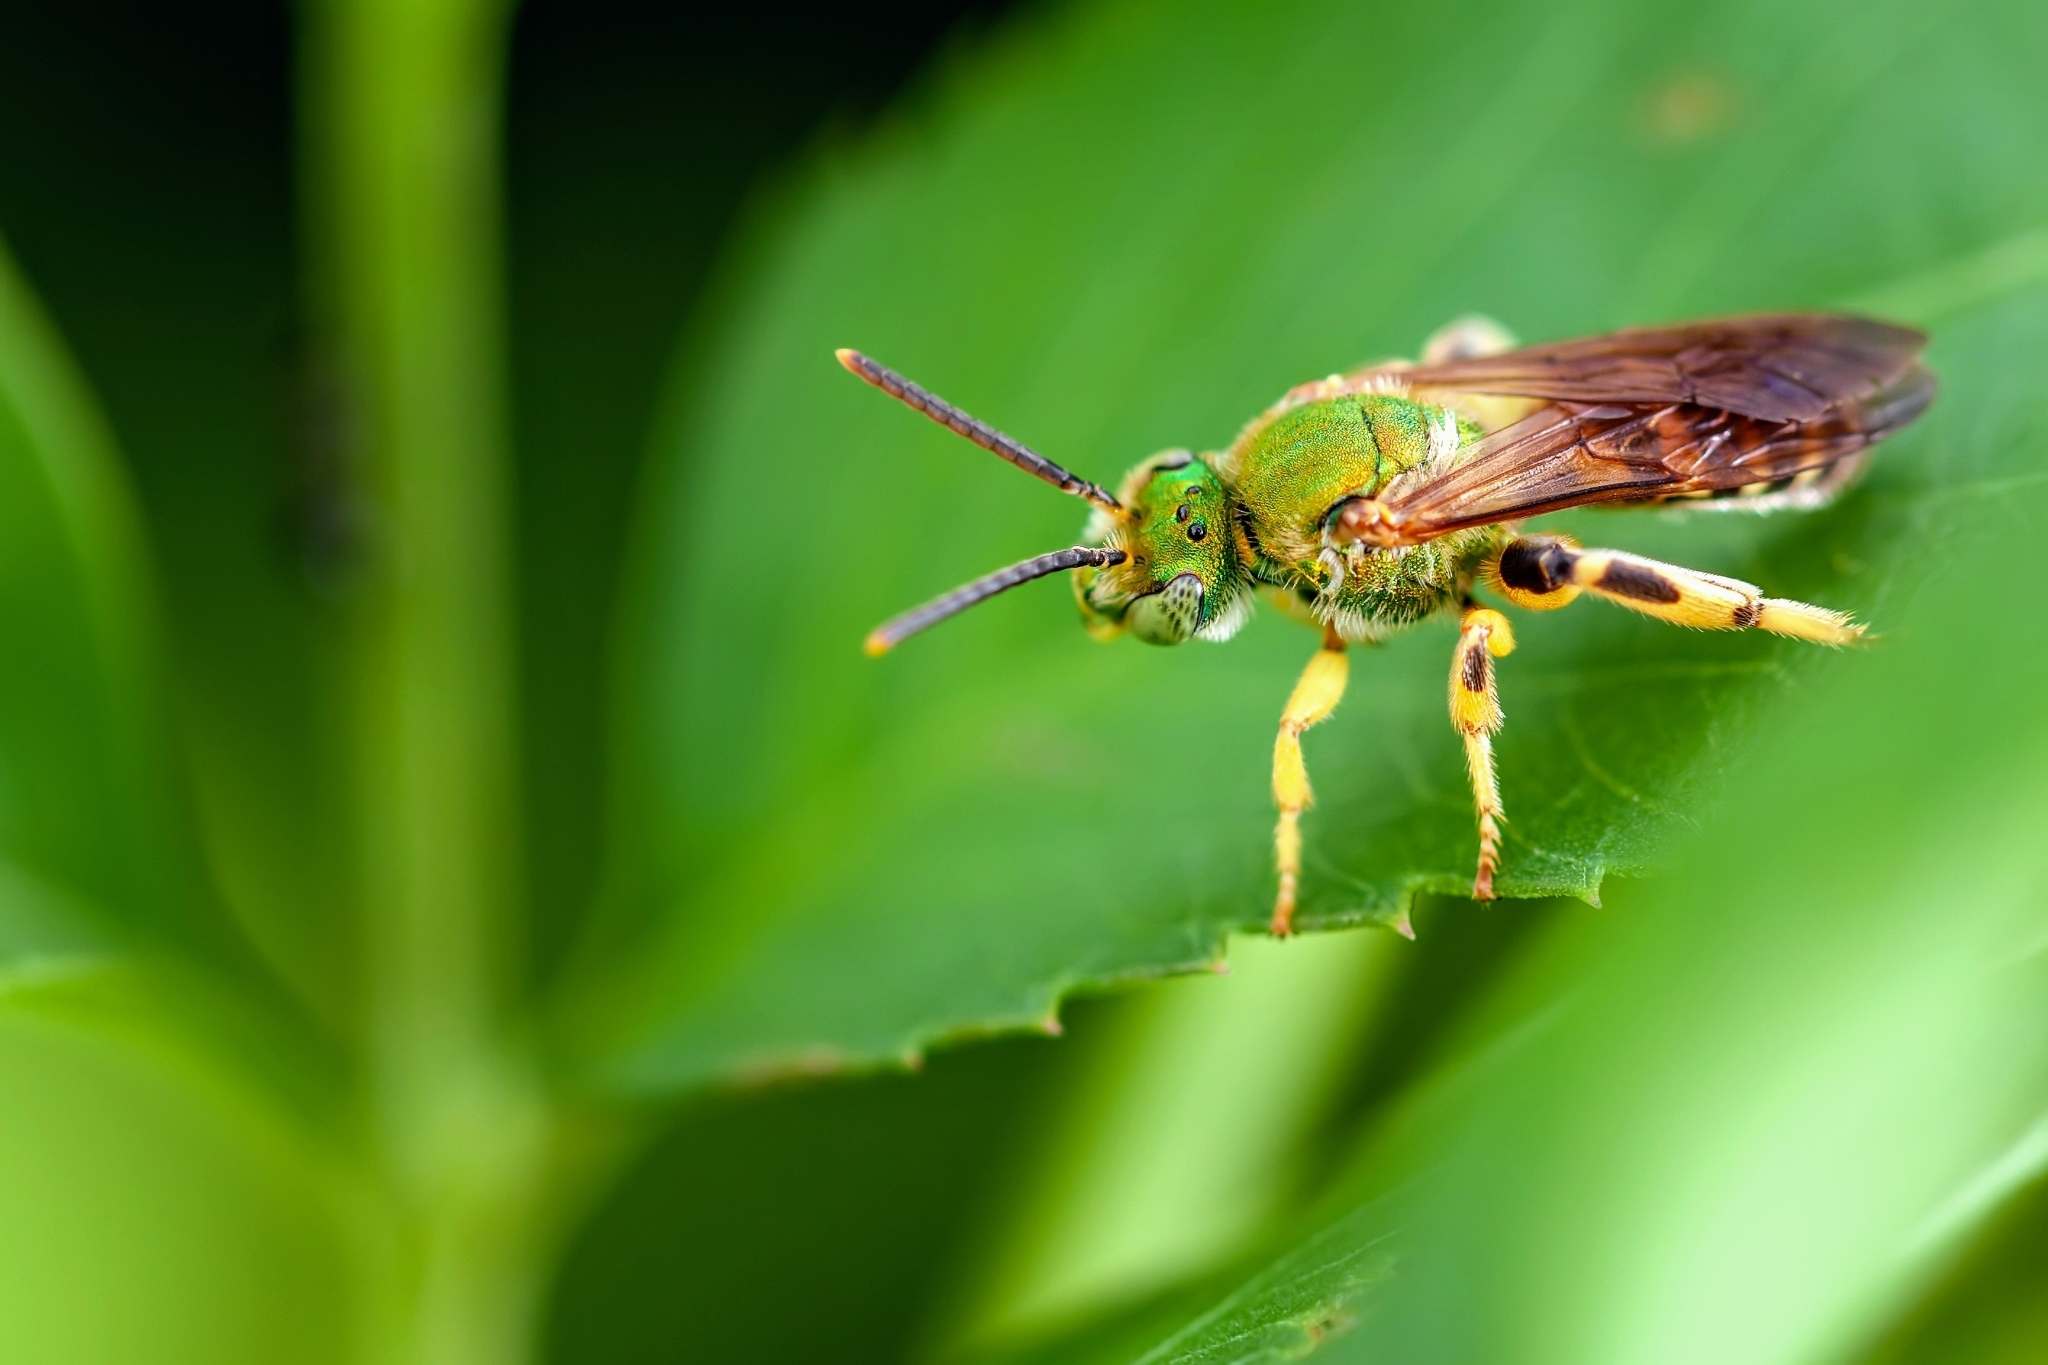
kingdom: Animalia
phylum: Arthropoda
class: Insecta
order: Hymenoptera
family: Halictidae
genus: Agapostemon
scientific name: Agapostemon splendens
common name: Brown-winged striped sweat bee
